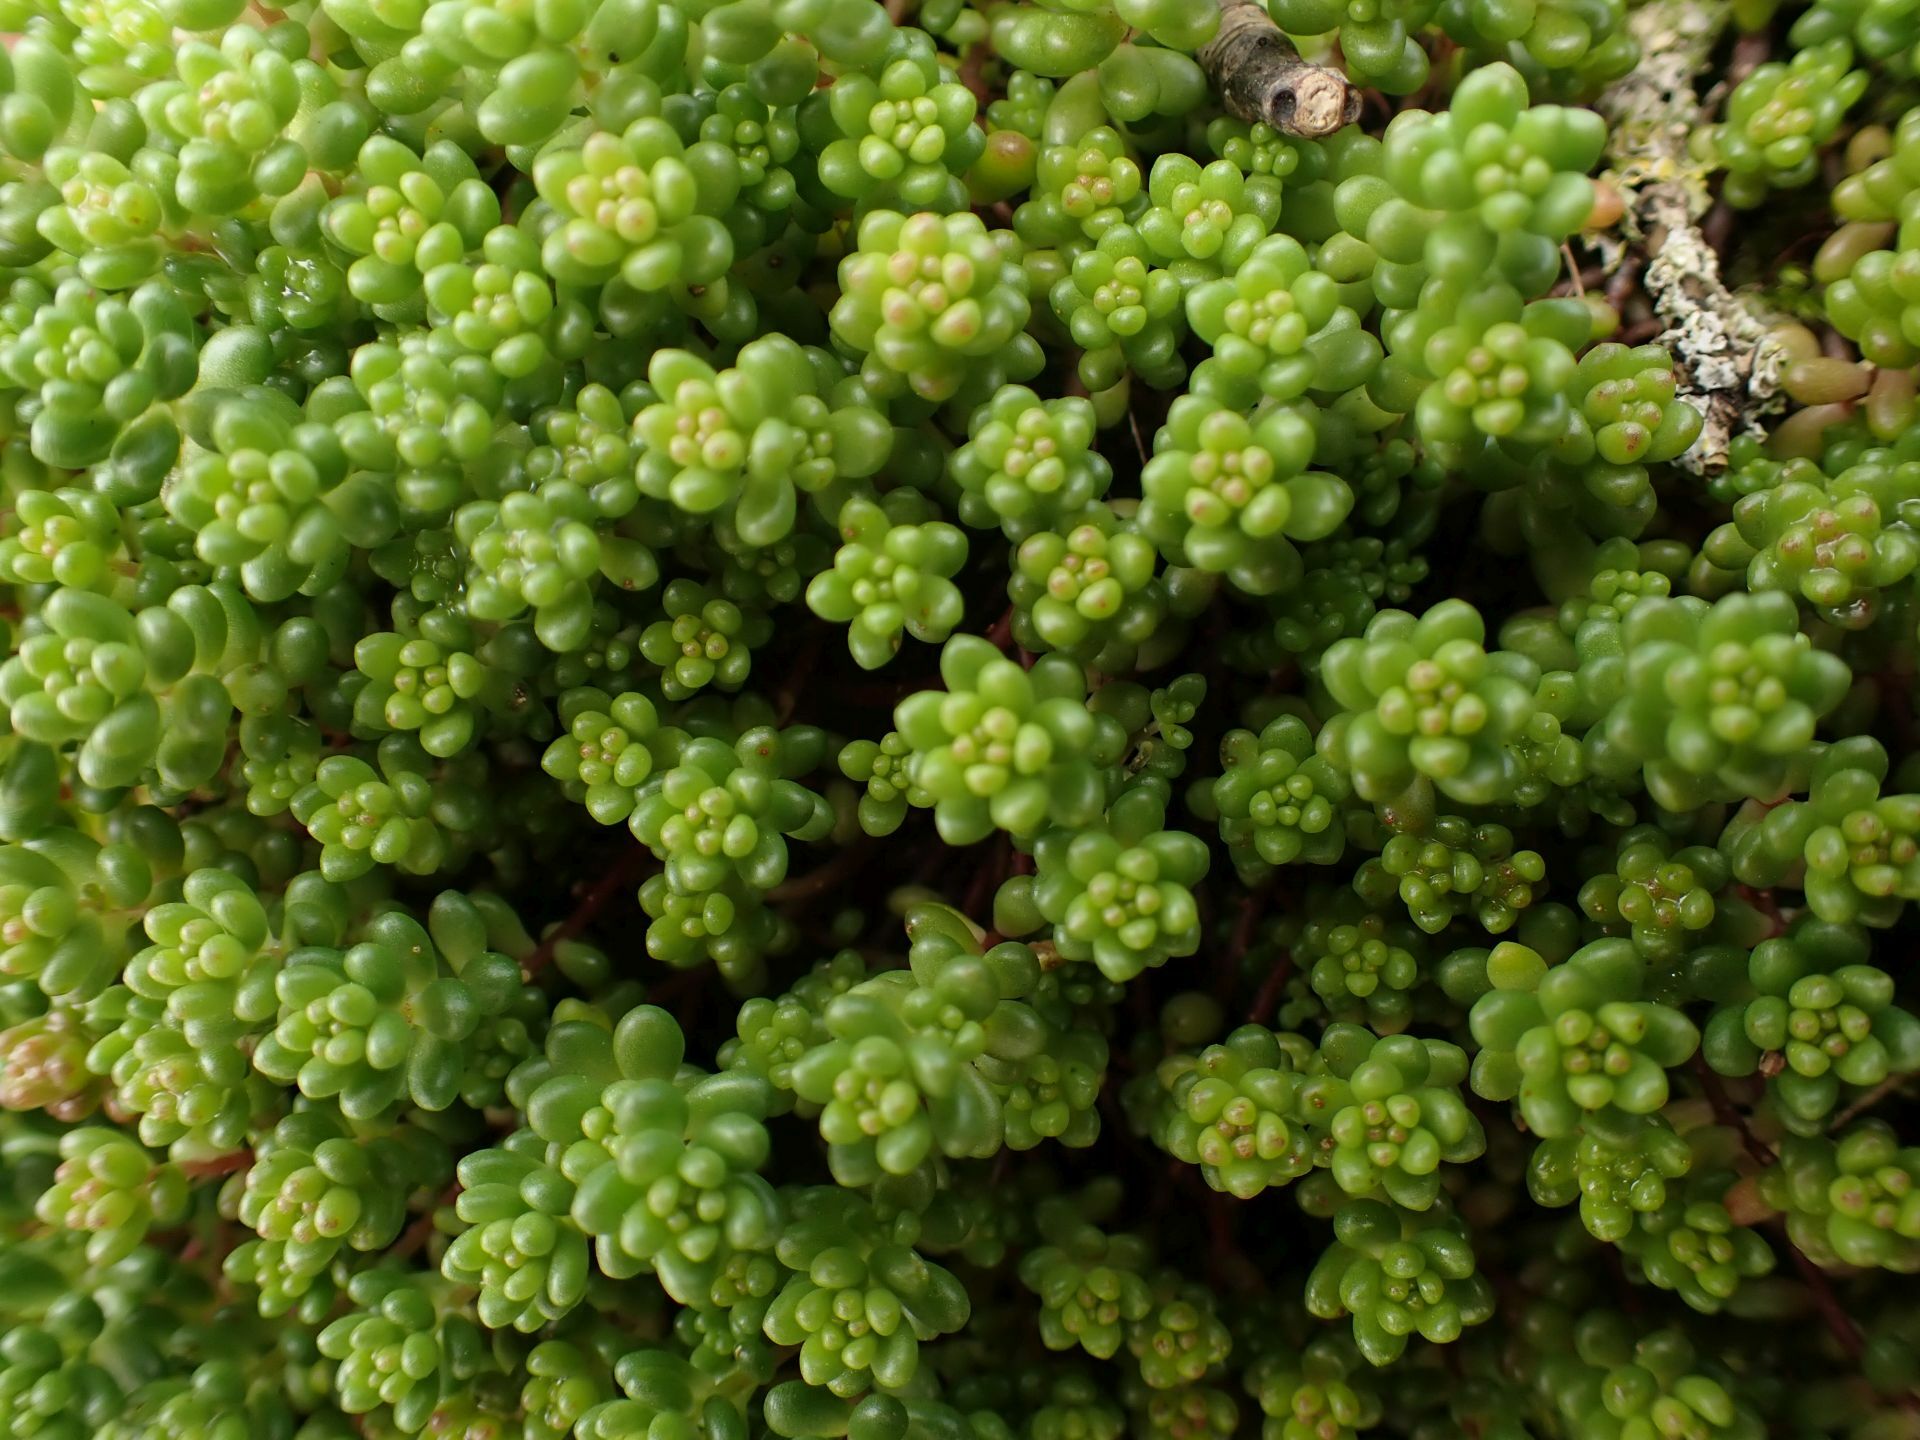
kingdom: Plantae
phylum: Tracheophyta
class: Magnoliopsida
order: Saxifragales
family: Crassulaceae
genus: Sedum
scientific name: Sedum album
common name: White stonecrop
